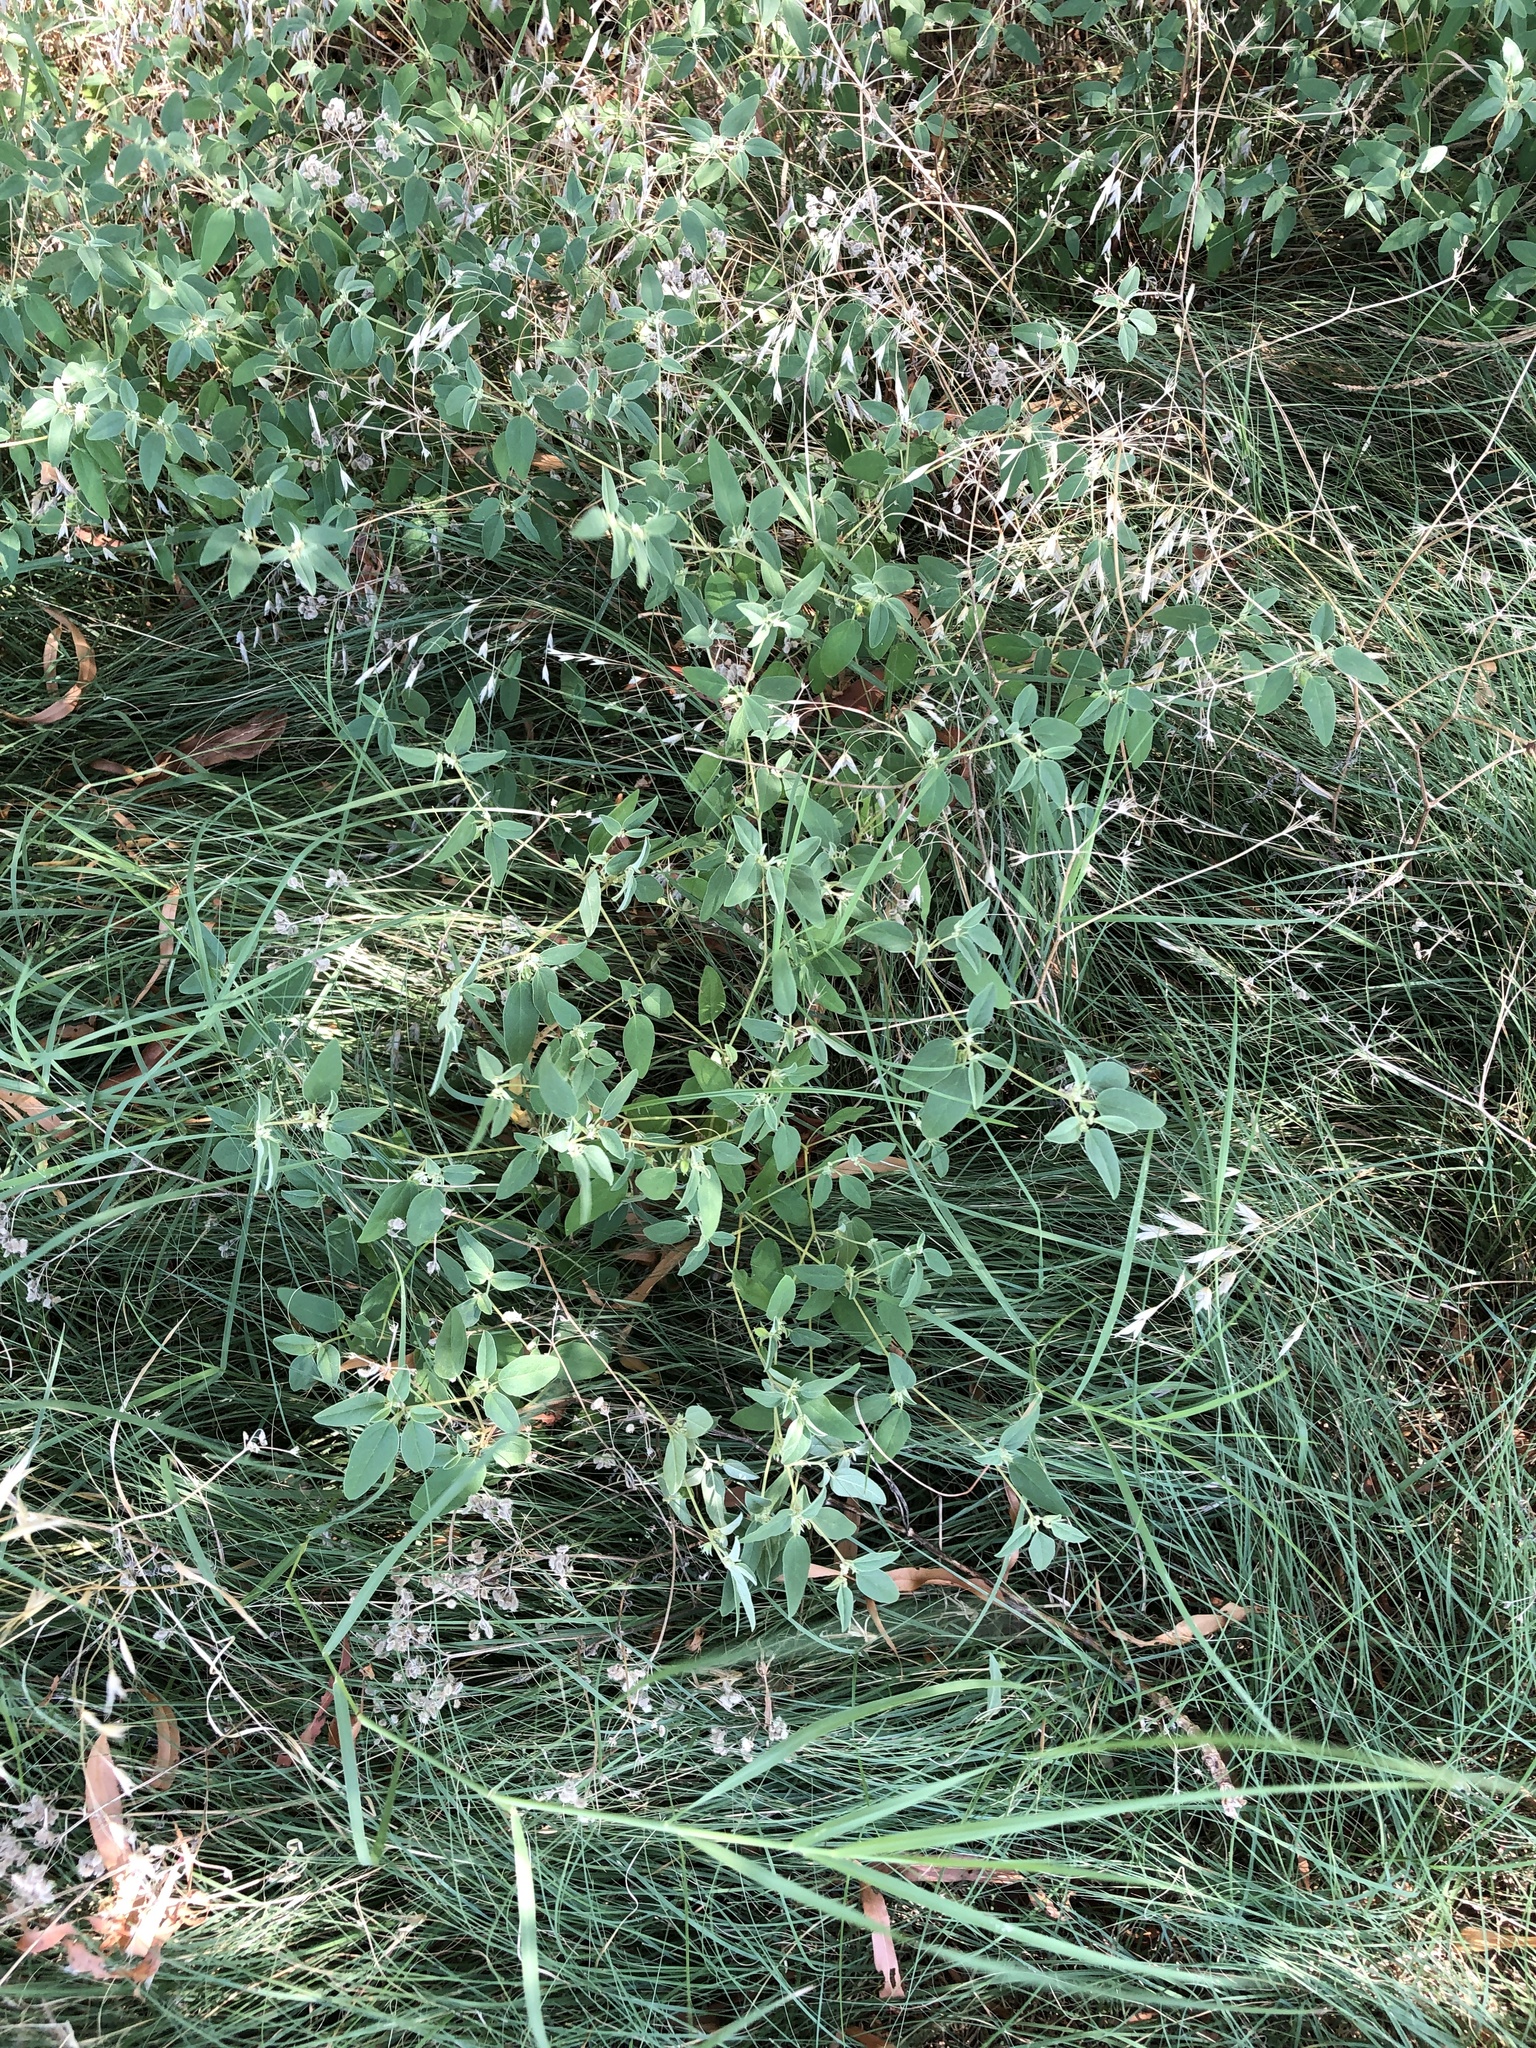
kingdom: Plantae
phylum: Tracheophyta
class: Magnoliopsida
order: Malpighiales
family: Euphorbiaceae
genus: Croton
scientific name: Croton monanthogynus
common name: One-seed croton
